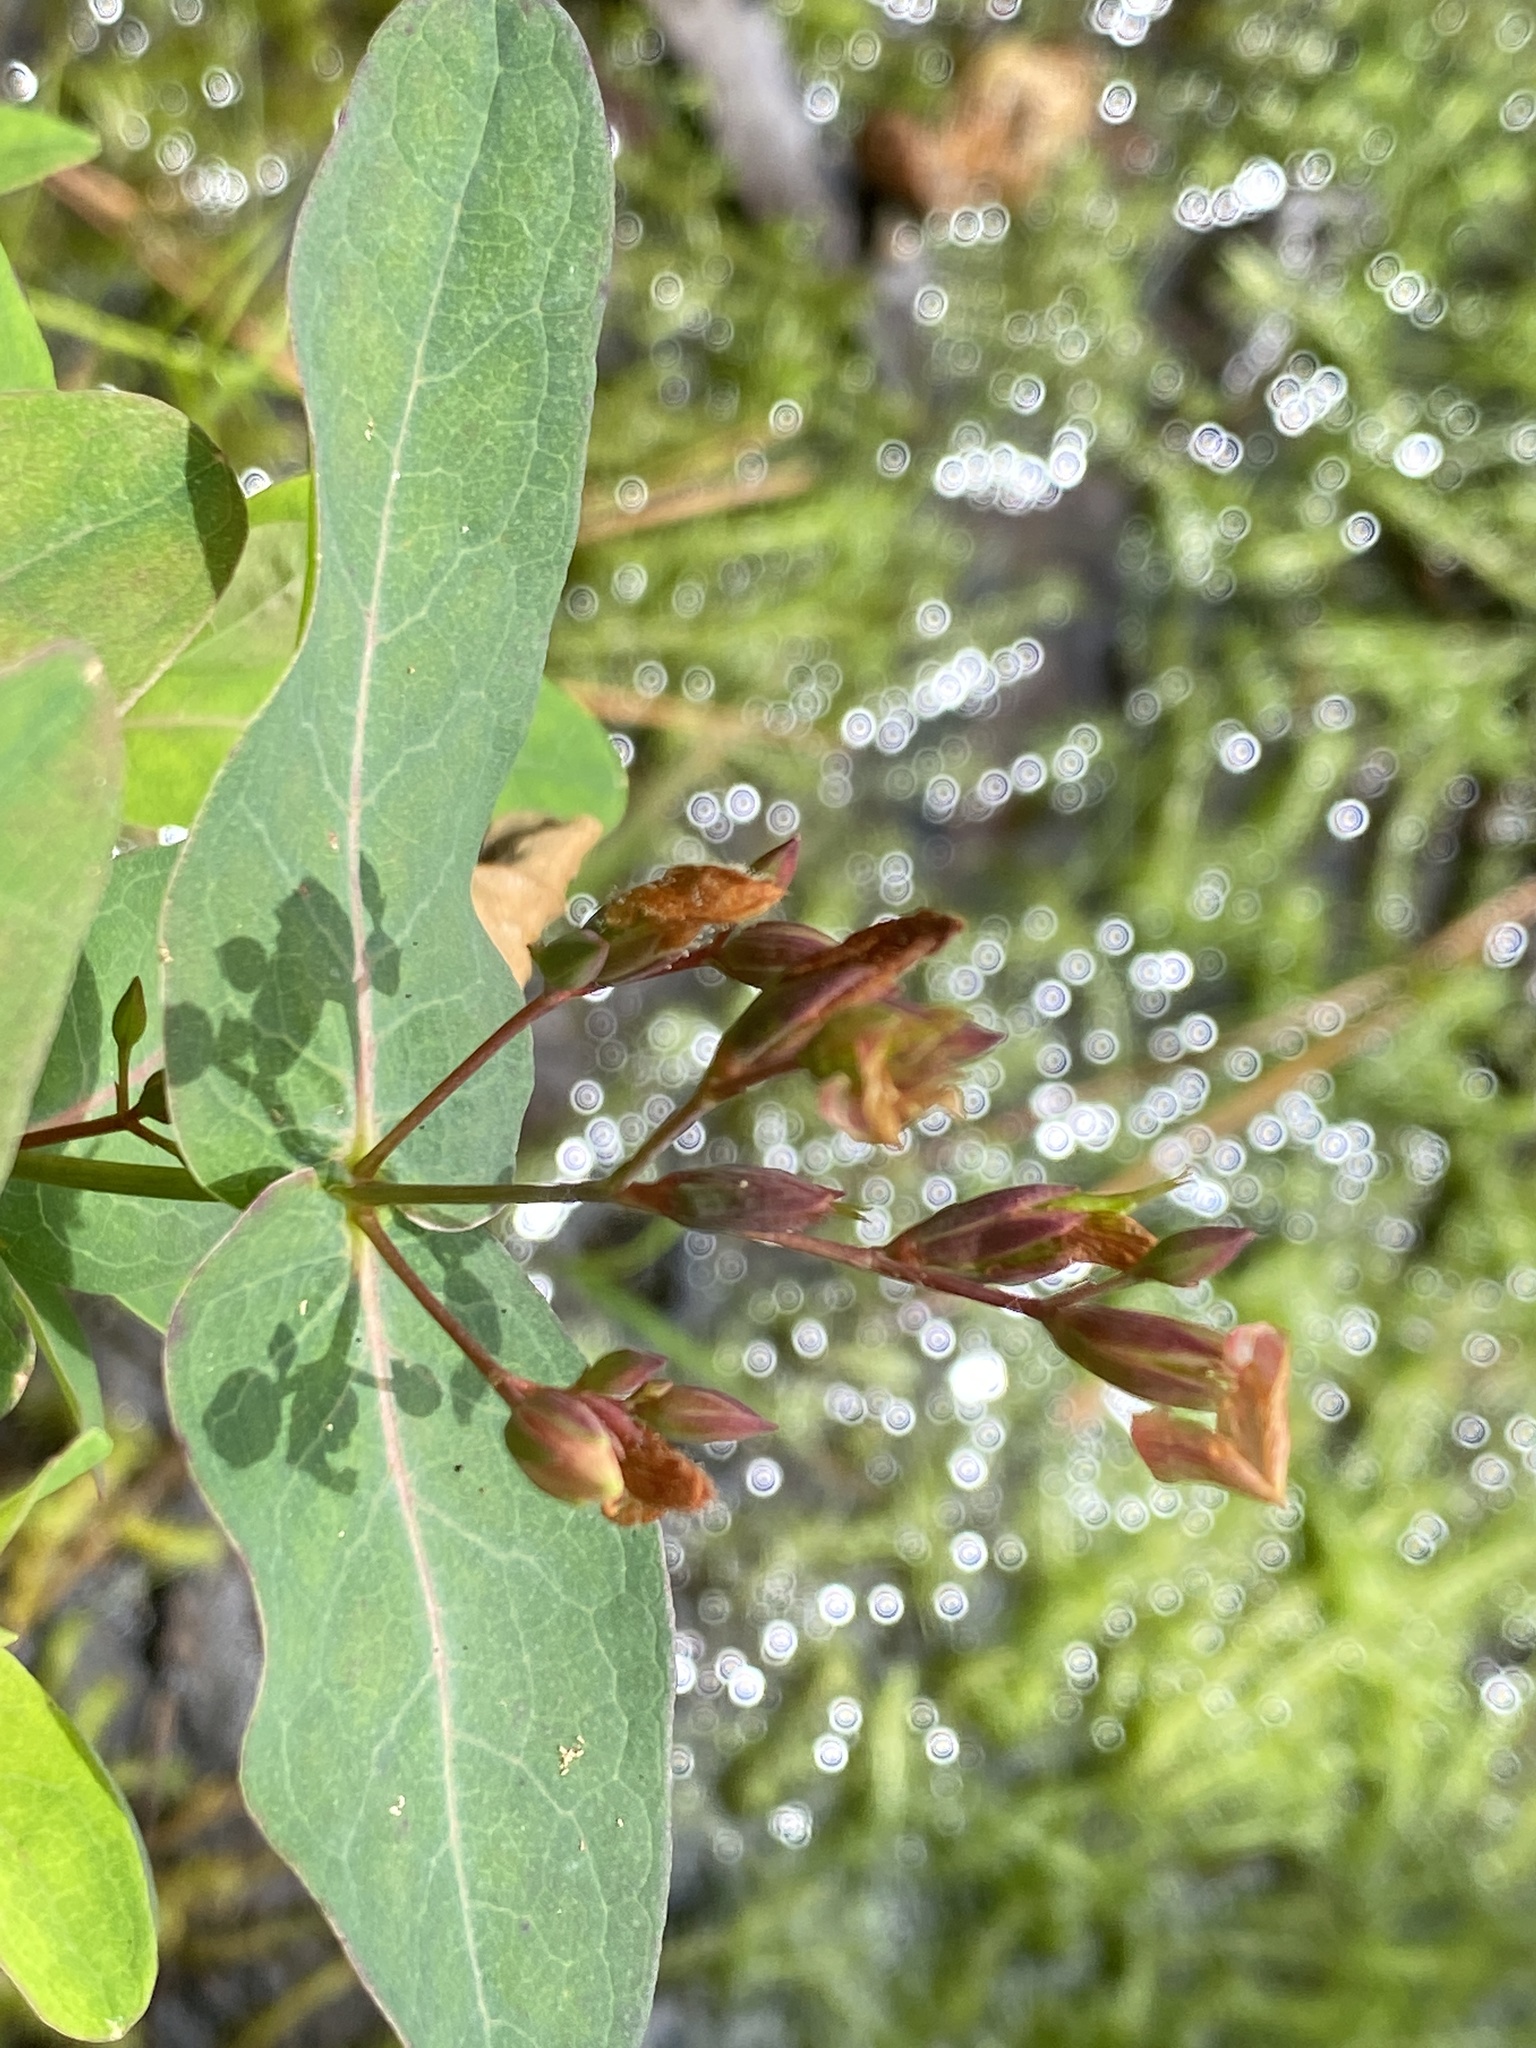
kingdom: Plantae
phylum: Tracheophyta
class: Magnoliopsida
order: Malpighiales
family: Hypericaceae
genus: Triadenum
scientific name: Triadenum virginicum
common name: Marsh st. john's-wort
